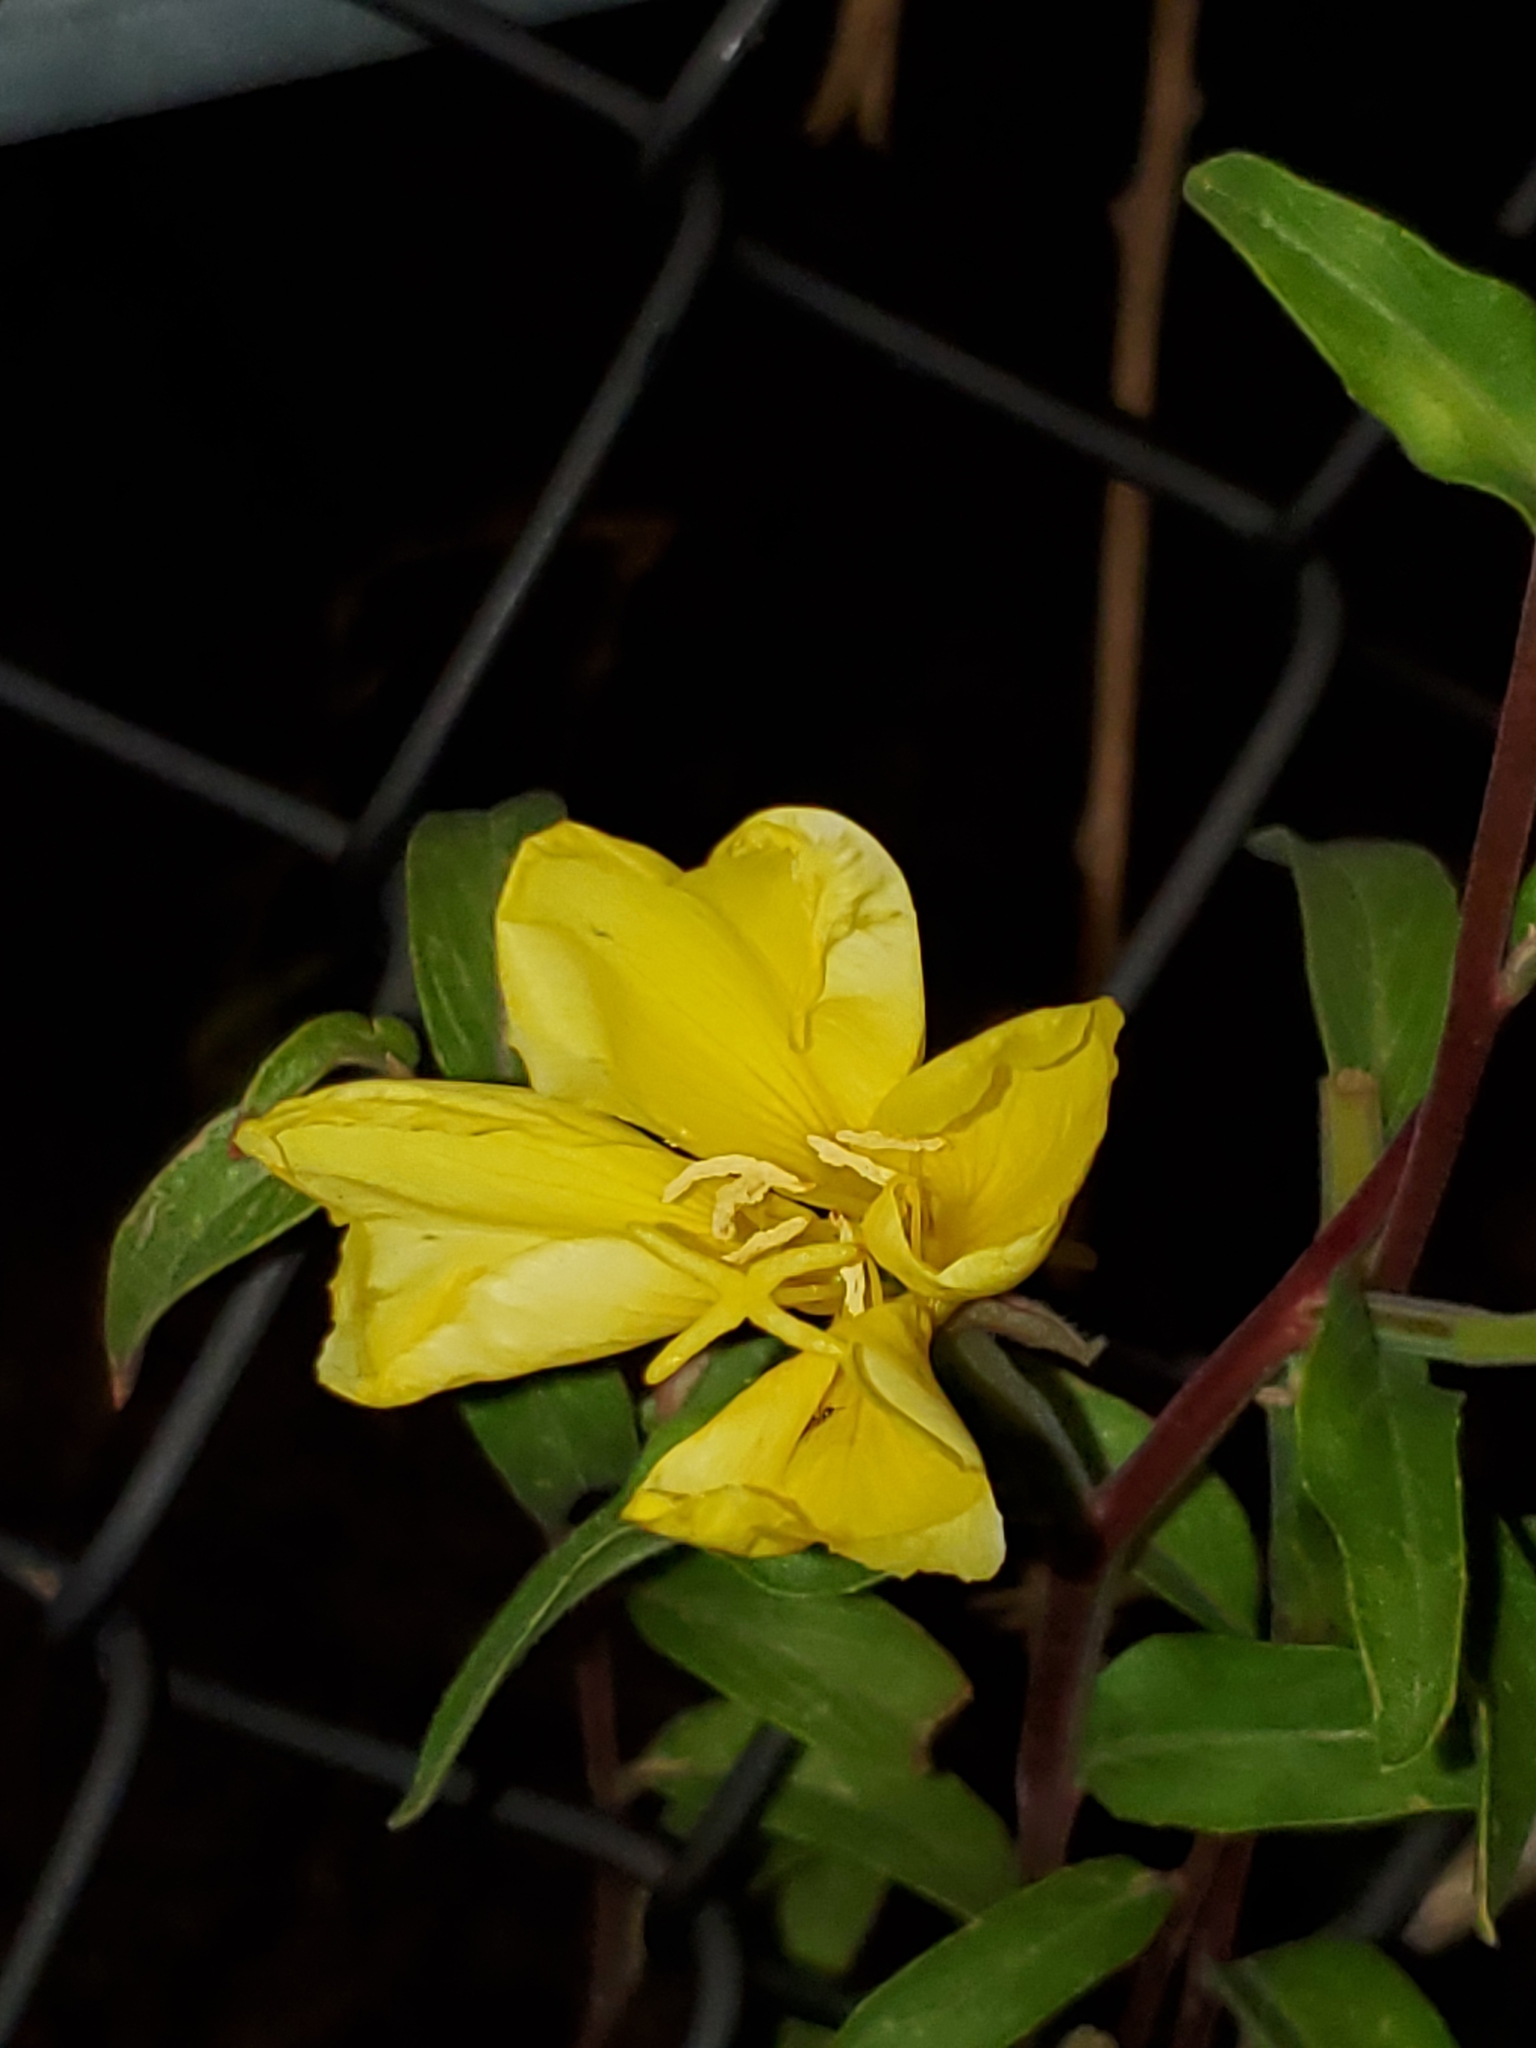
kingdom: Plantae
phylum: Tracheophyta
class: Magnoliopsida
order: Myrtales
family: Onagraceae
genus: Oenothera
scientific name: Oenothera elata
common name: Hooker's evening-primrose
